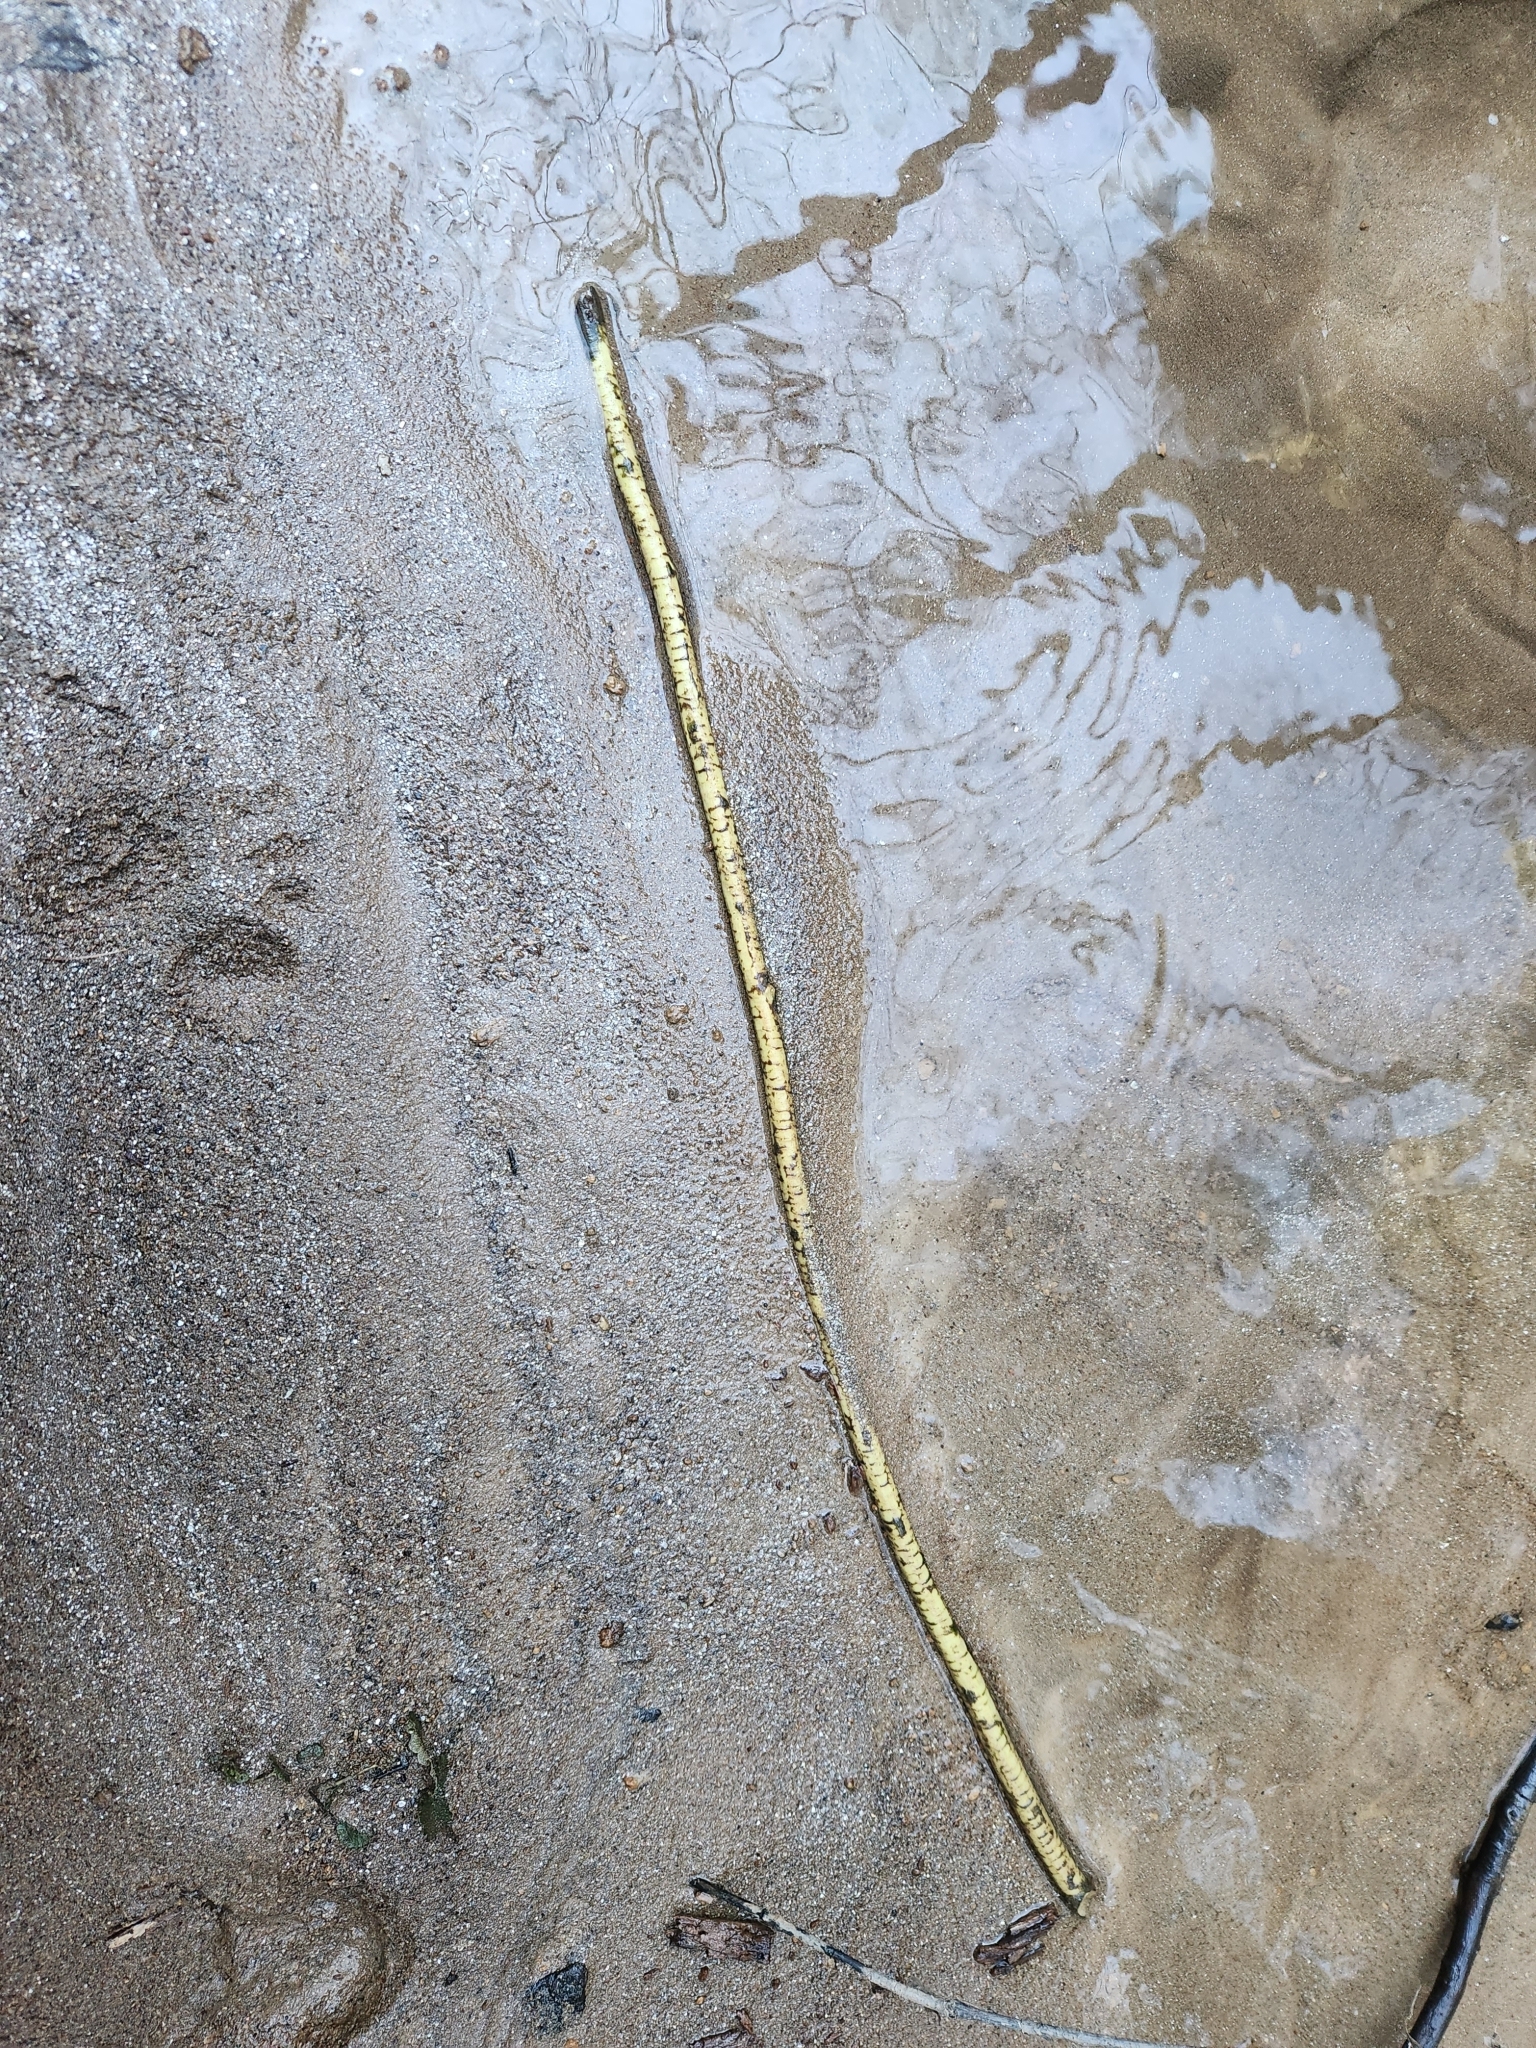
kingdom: Animalia
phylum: Chordata
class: Mammalia
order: Rodentia
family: Castoridae
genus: Castor
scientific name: Castor canadensis
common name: American beaver
